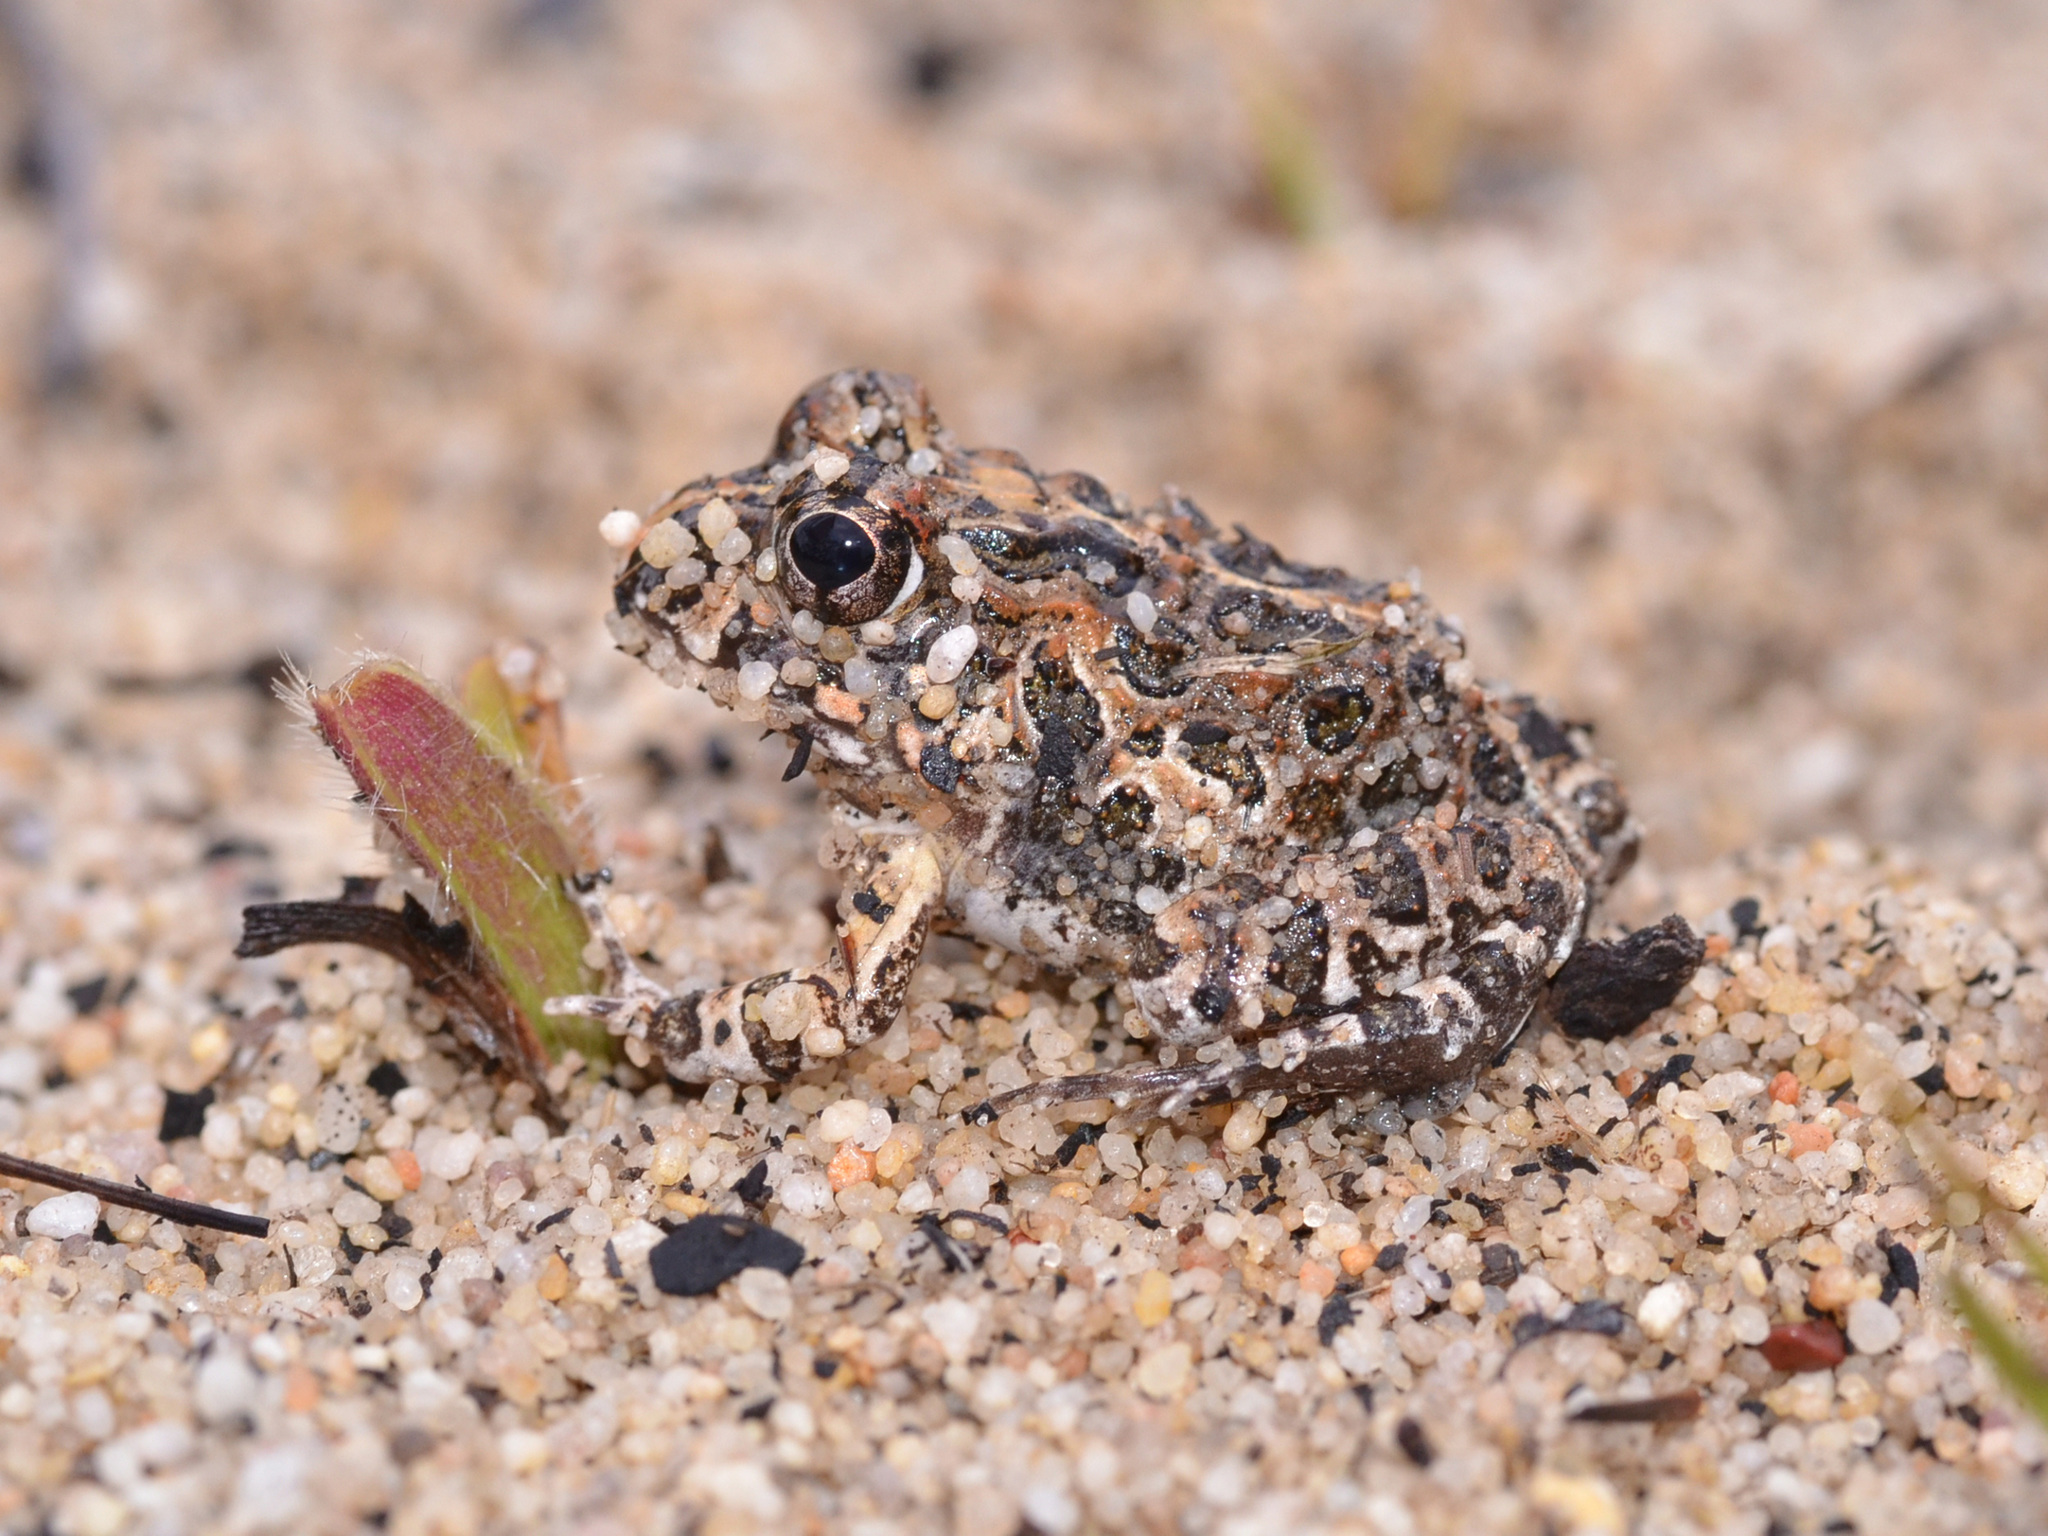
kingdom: Animalia
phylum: Chordata
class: Amphibia
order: Anura
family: Pyxicephalidae
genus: Tomopterna
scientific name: Tomopterna
